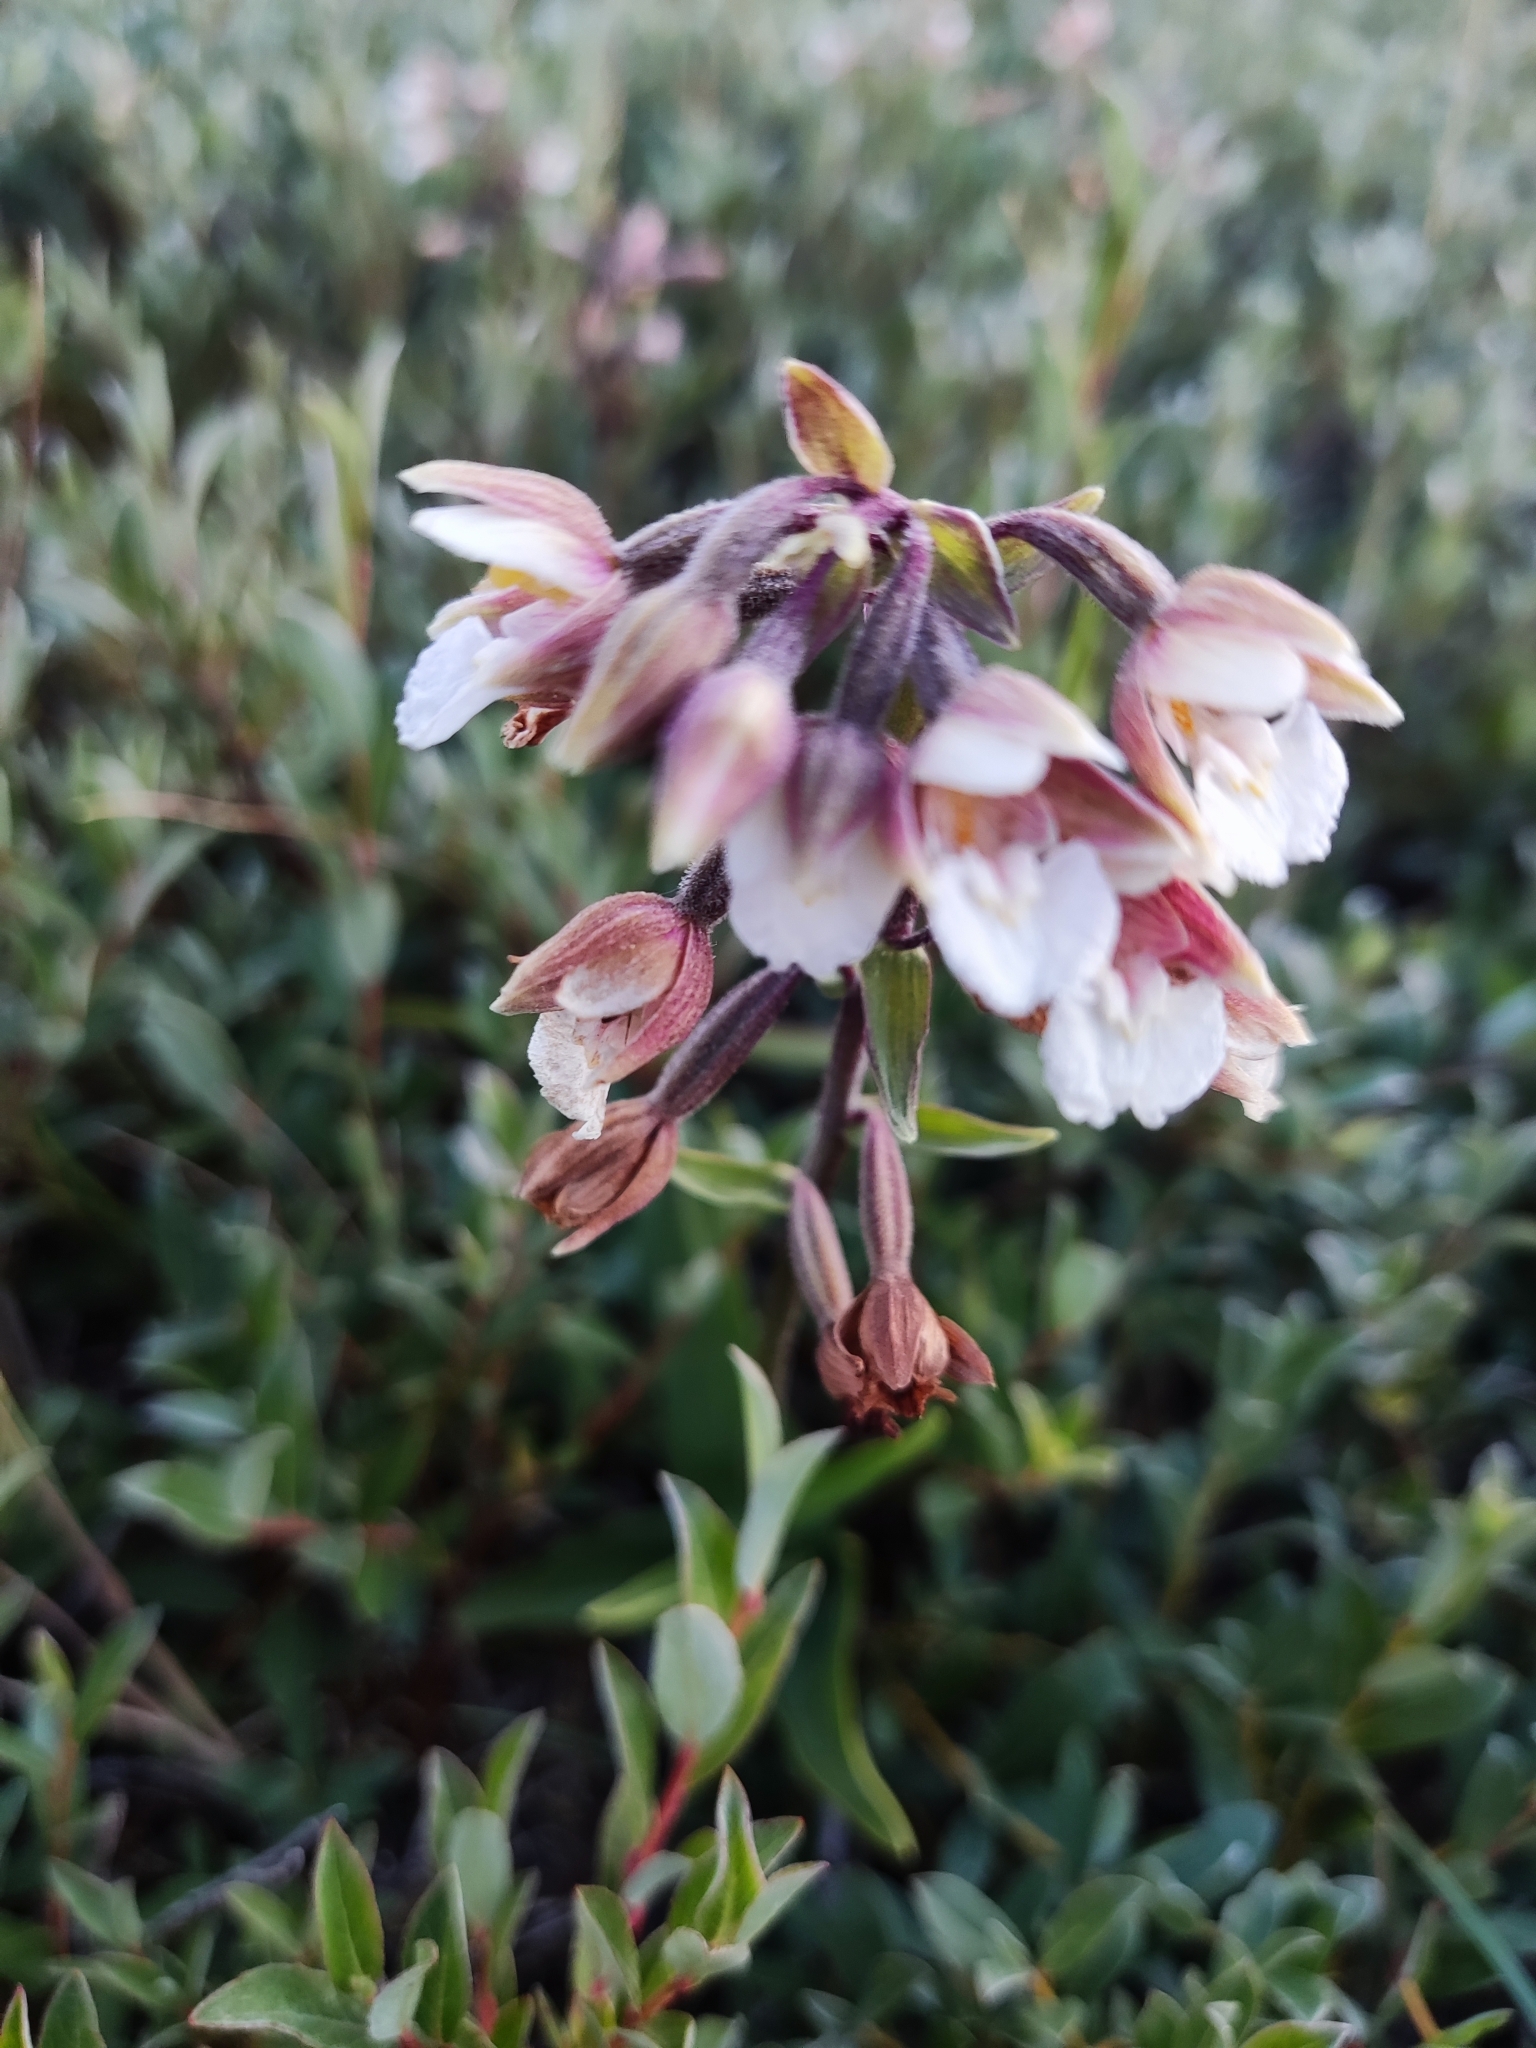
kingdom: Plantae
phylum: Tracheophyta
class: Liliopsida
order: Asparagales
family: Orchidaceae
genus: Epipactis
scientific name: Epipactis palustris
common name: Marsh helleborine
